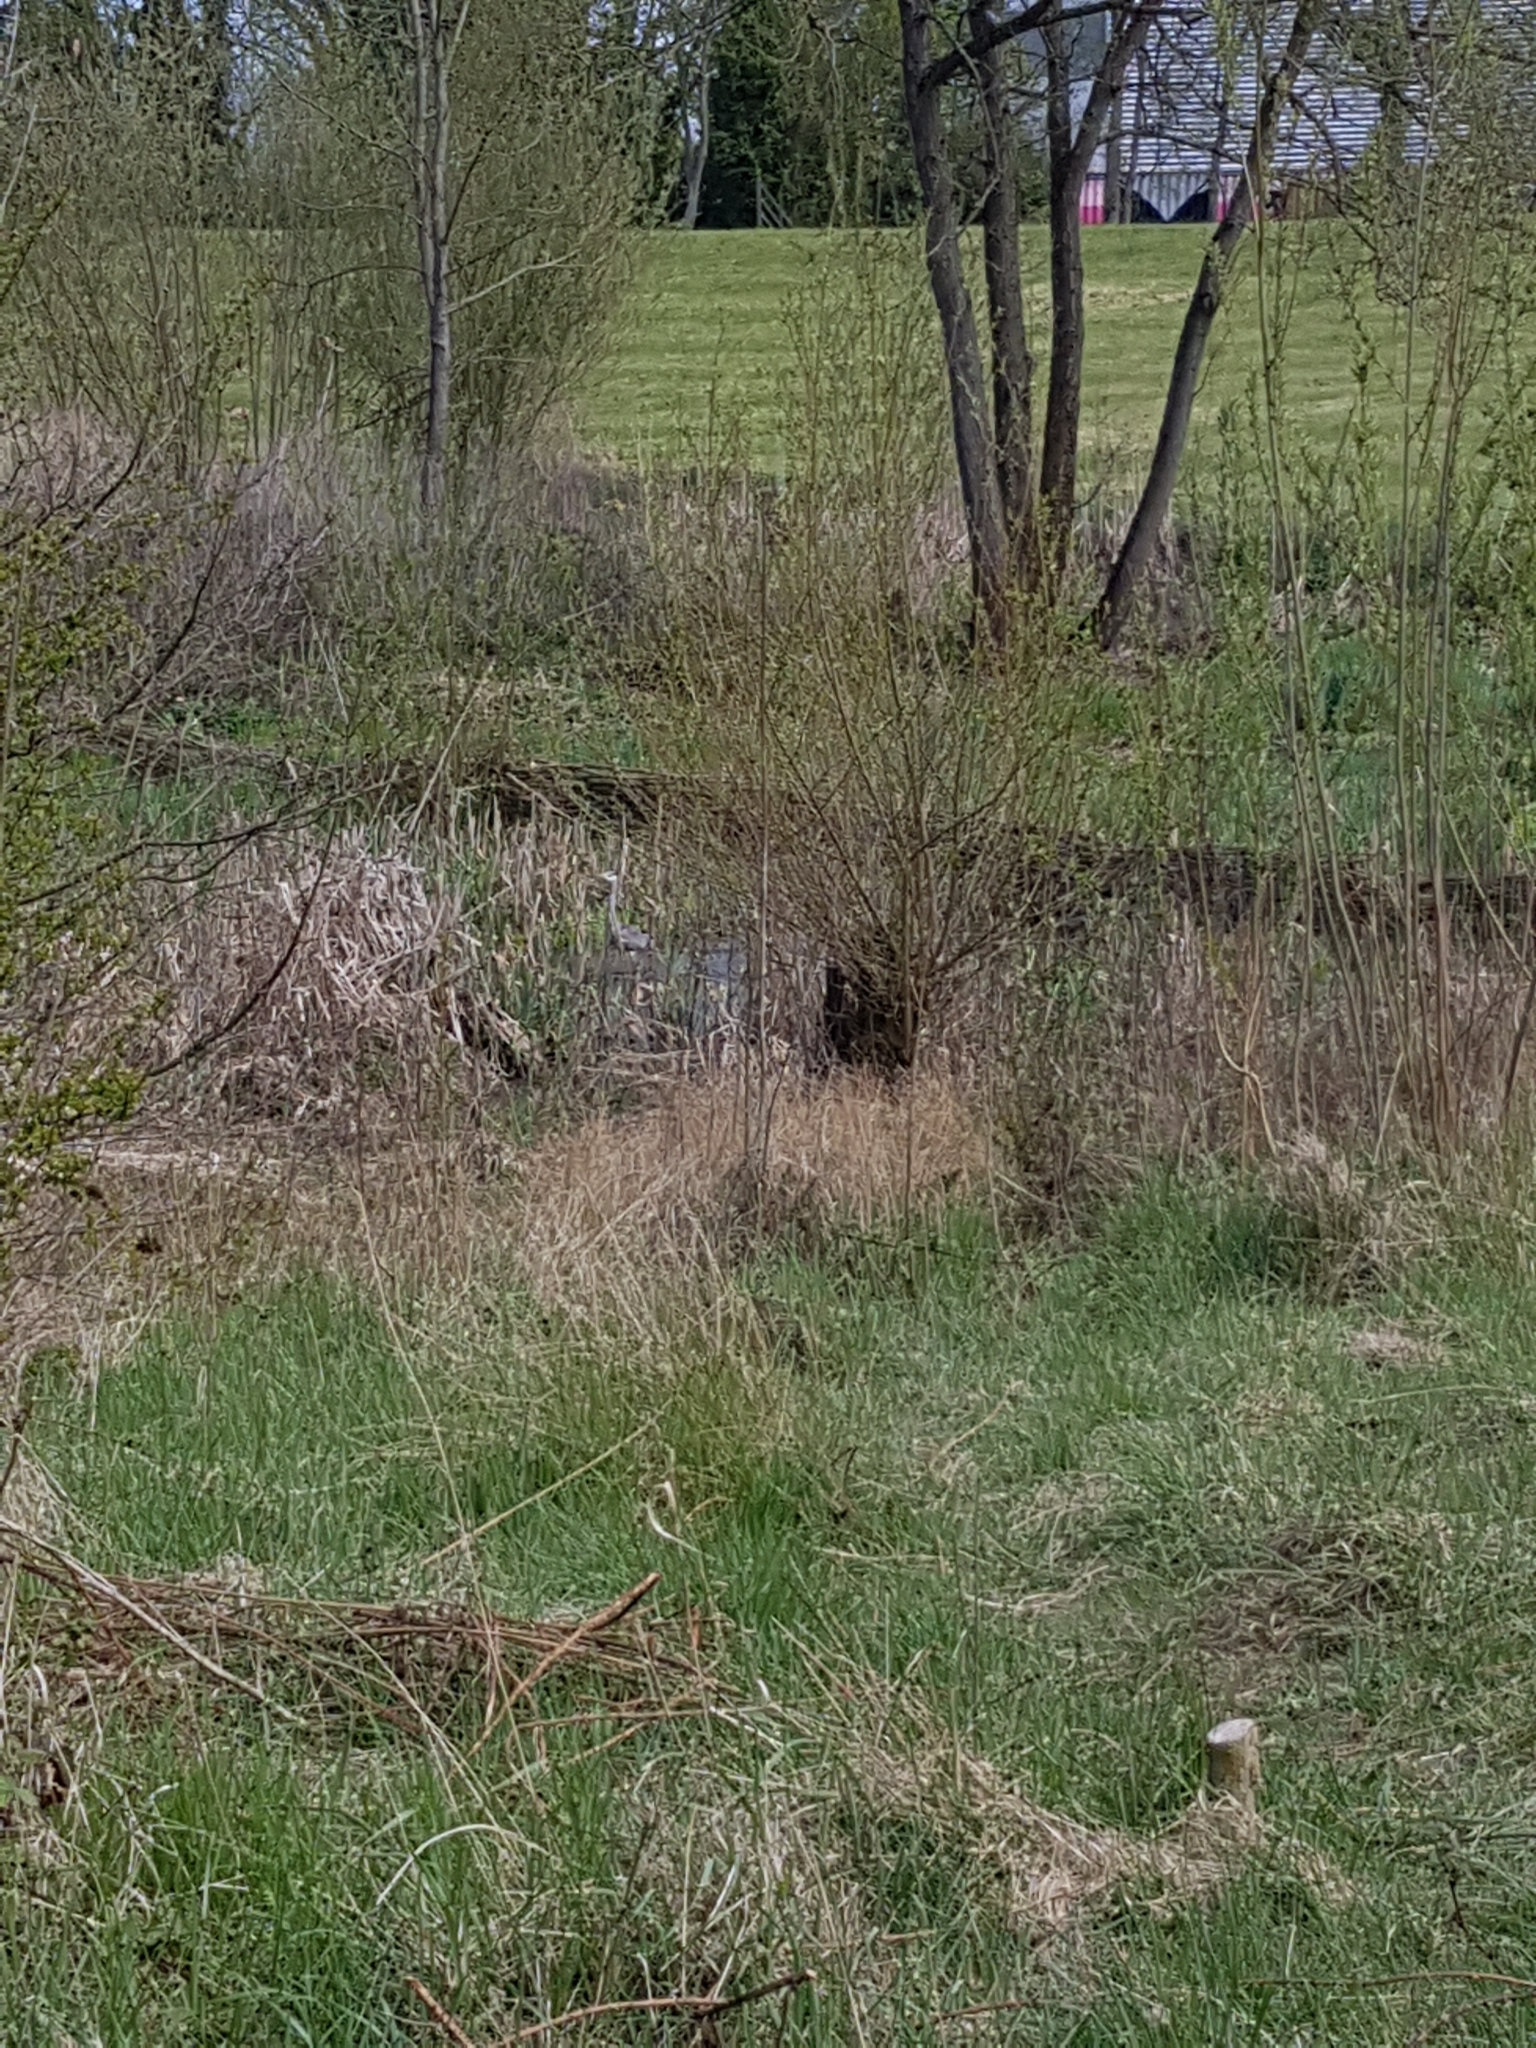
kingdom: Animalia
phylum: Chordata
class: Aves
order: Pelecaniformes
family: Ardeidae
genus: Ardea
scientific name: Ardea cinerea
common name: Grey heron
